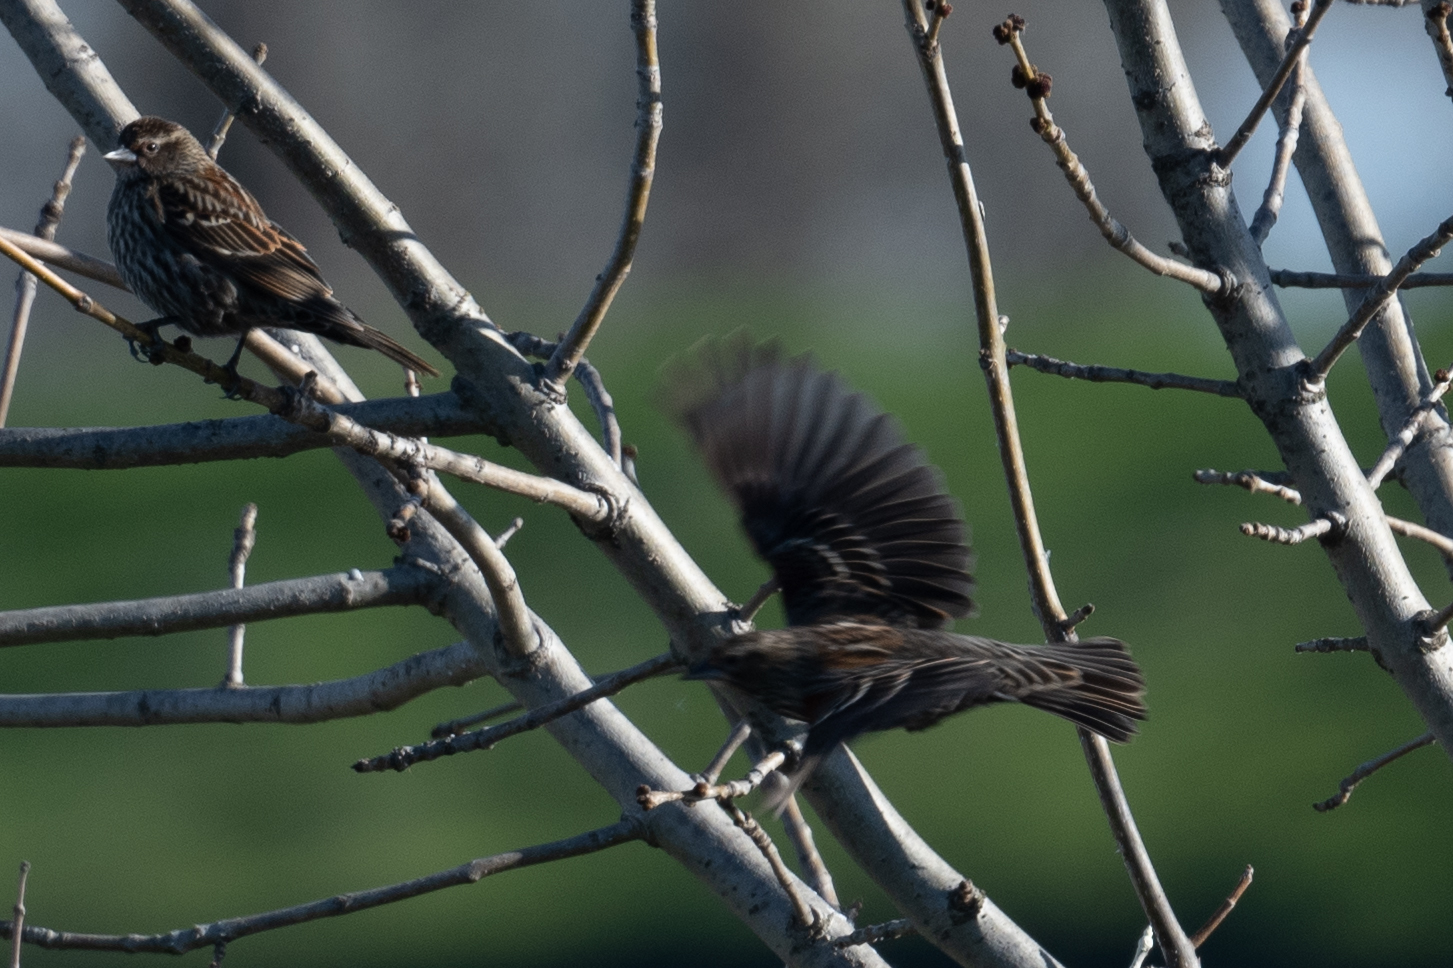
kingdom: Animalia
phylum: Chordata
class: Aves
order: Passeriformes
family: Icteridae
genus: Agelaius
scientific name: Agelaius phoeniceus
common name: Red-winged blackbird
